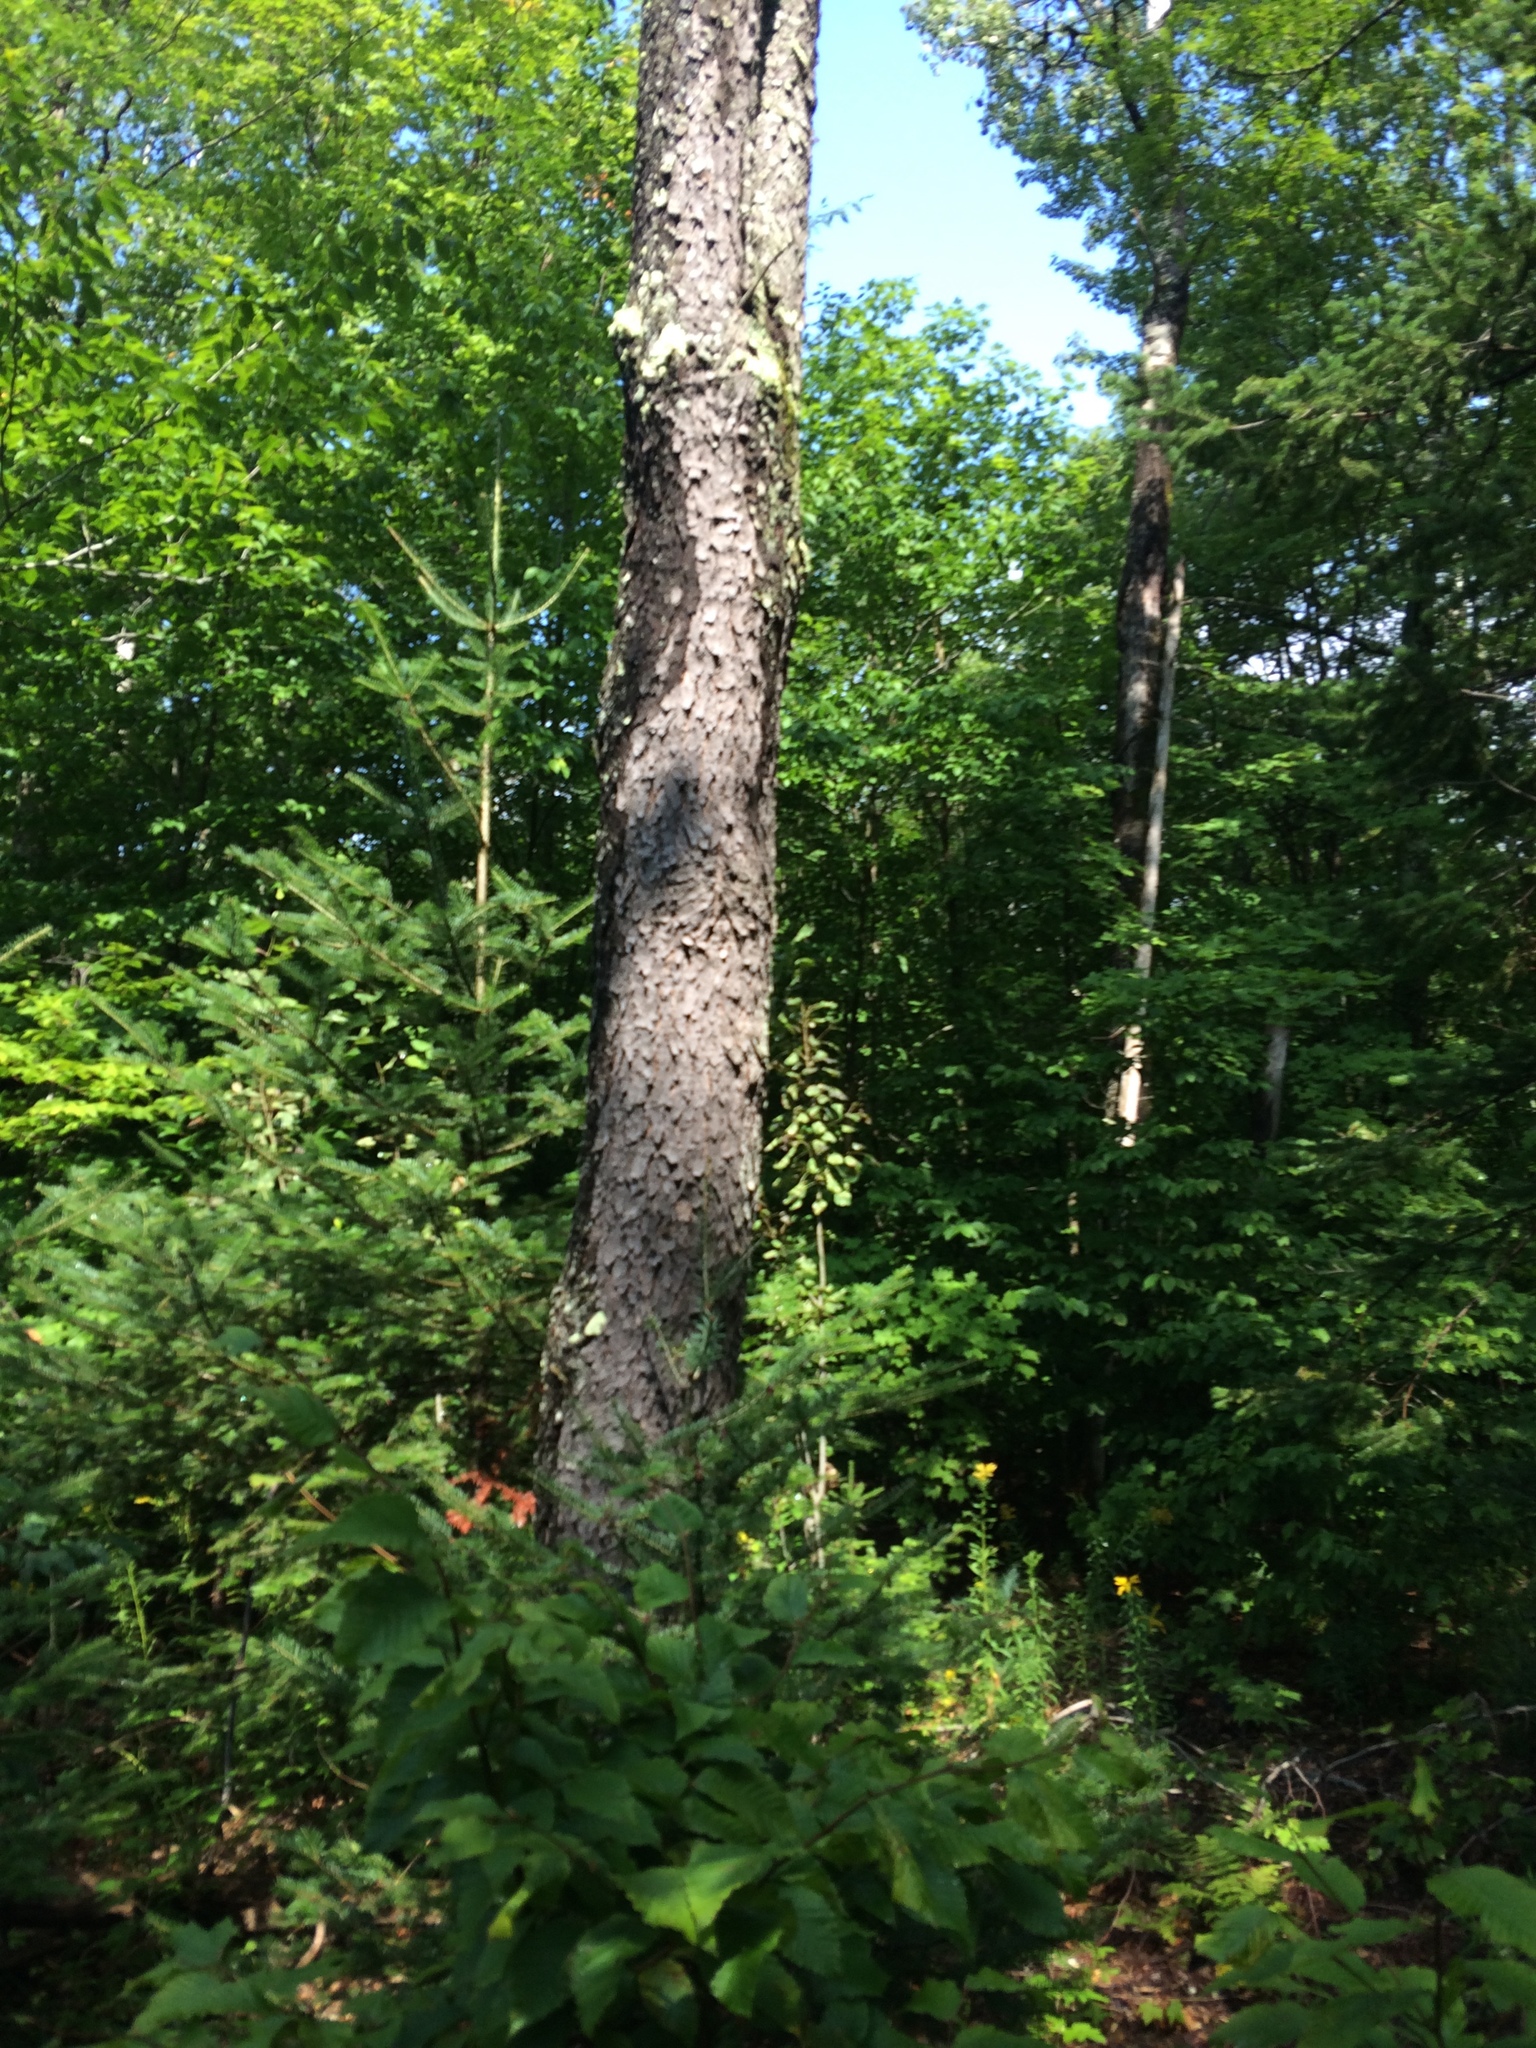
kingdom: Plantae
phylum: Tracheophyta
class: Magnoliopsida
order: Rosales
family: Rosaceae
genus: Prunus
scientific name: Prunus serotina
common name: Black cherry
